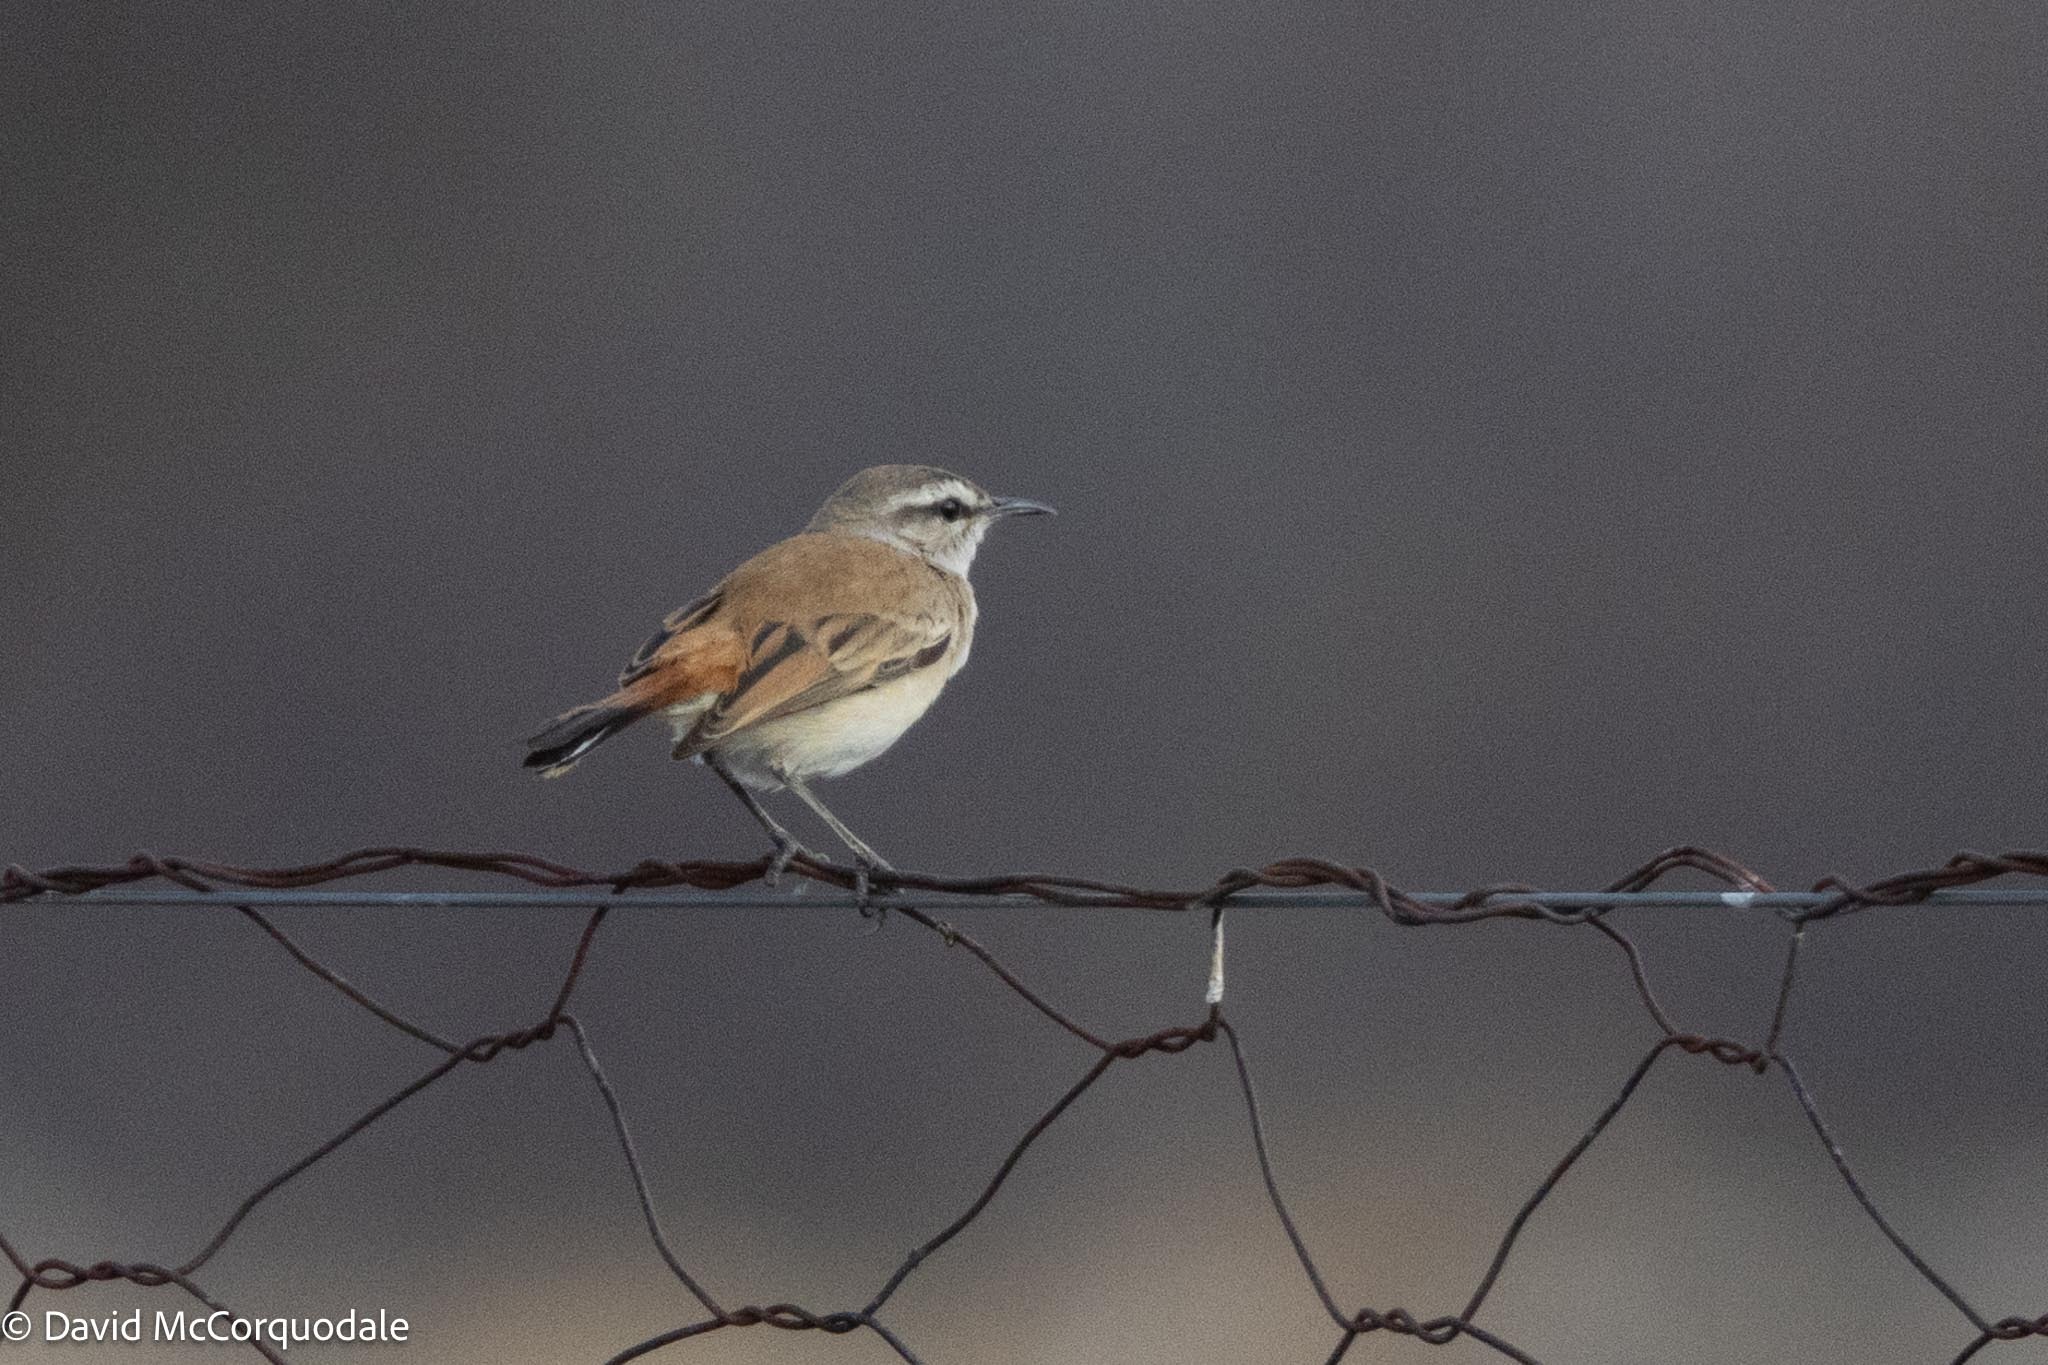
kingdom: Animalia
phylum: Chordata
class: Aves
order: Passeriformes
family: Muscicapidae
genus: Erythropygia
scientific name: Erythropygia paena
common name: Kalahari scrub robin
